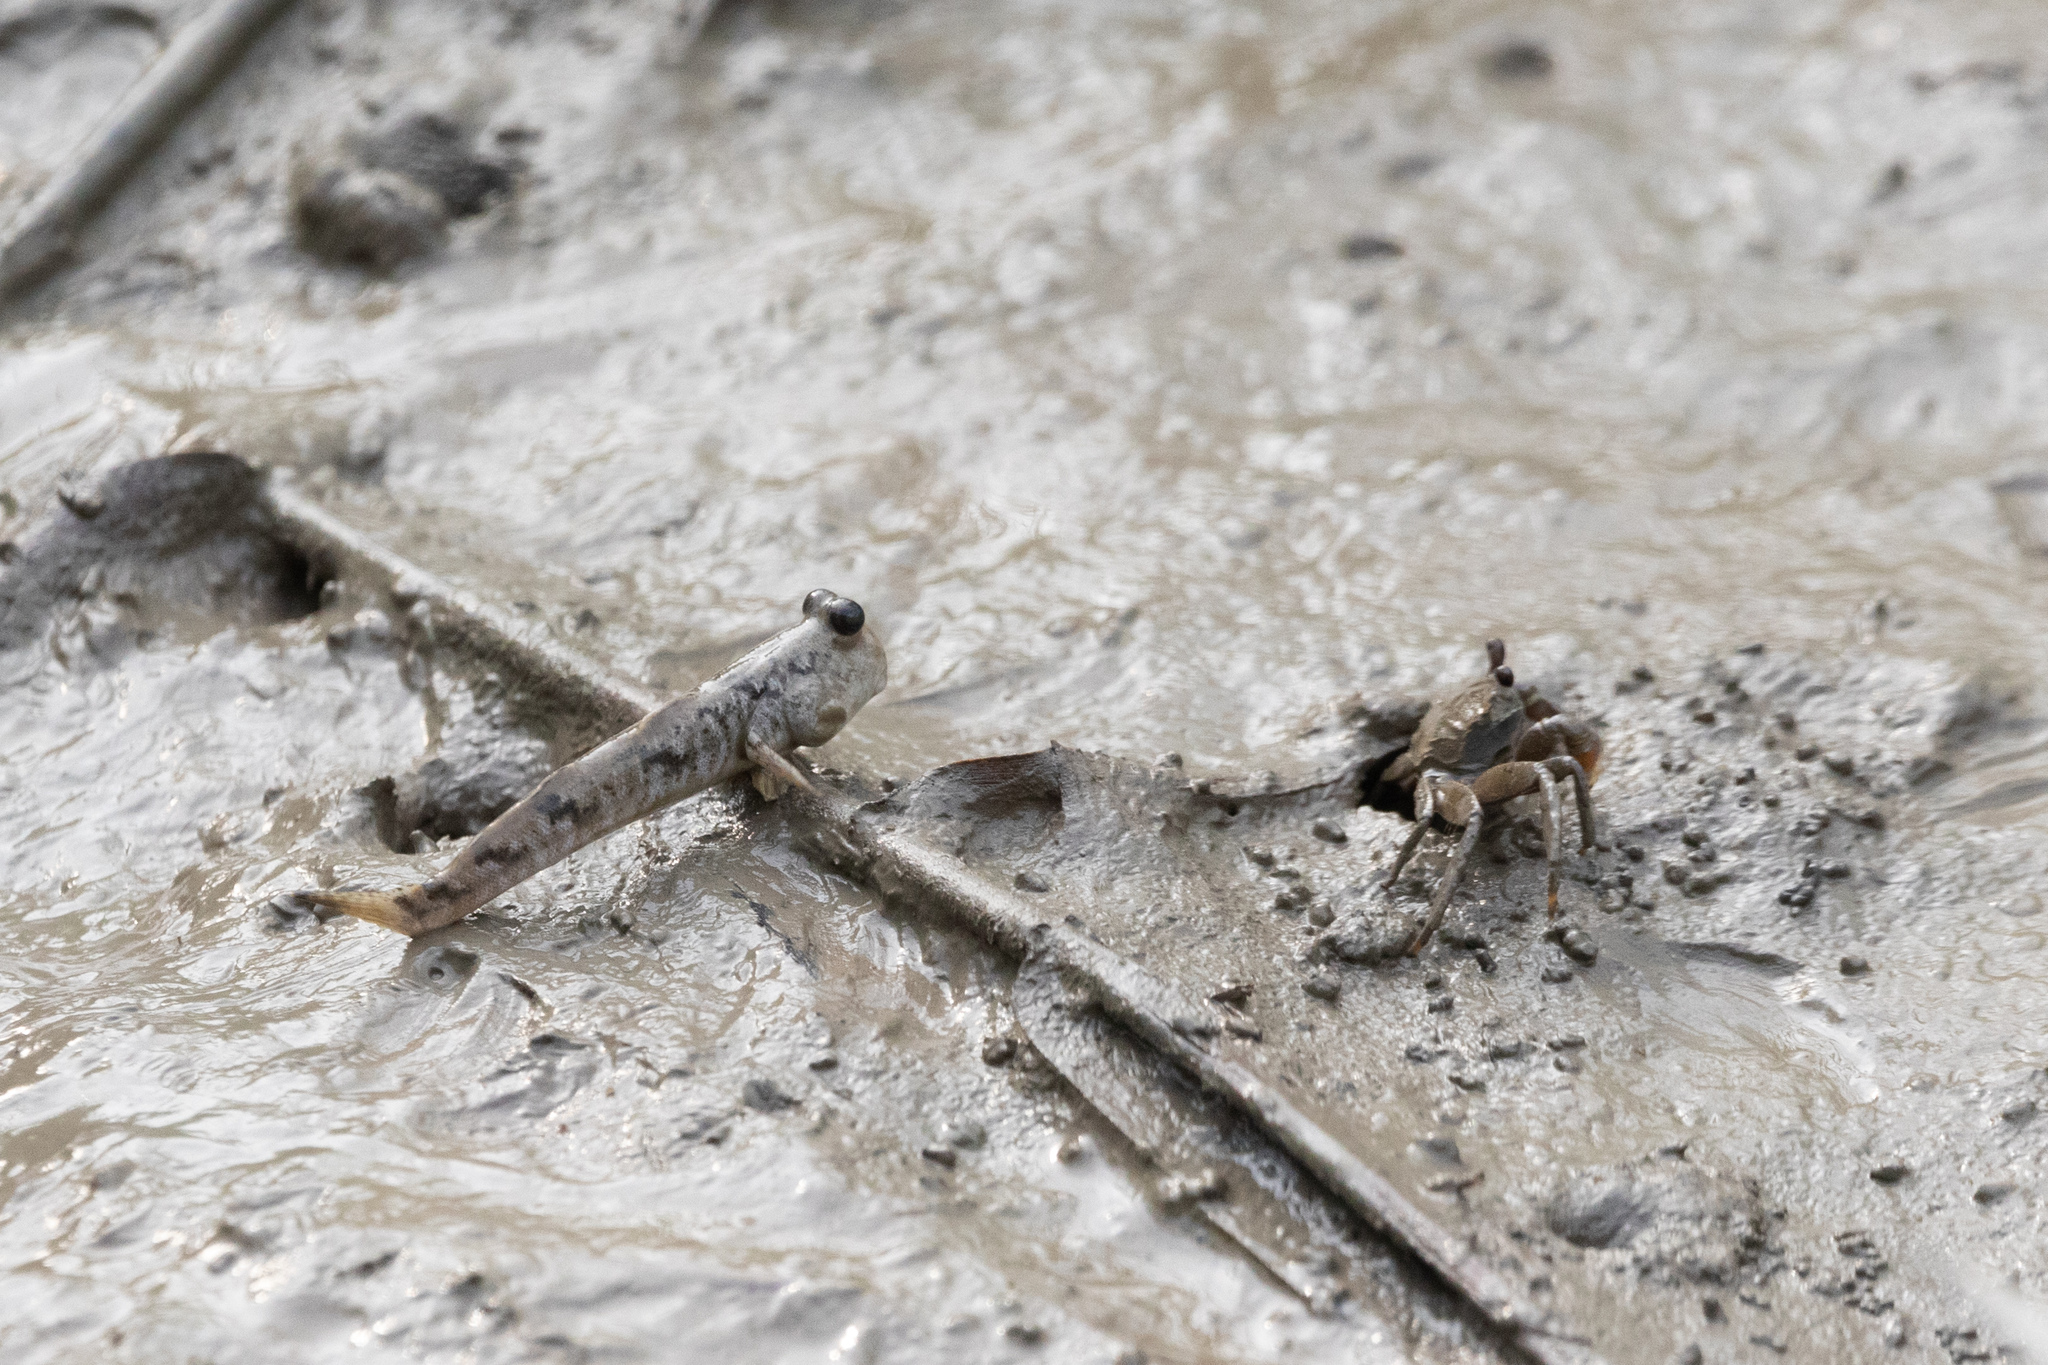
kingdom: Animalia
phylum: Chordata
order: Perciformes
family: Gobiidae
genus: Periophthalmus
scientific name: Periophthalmus modestus
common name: Black goby
